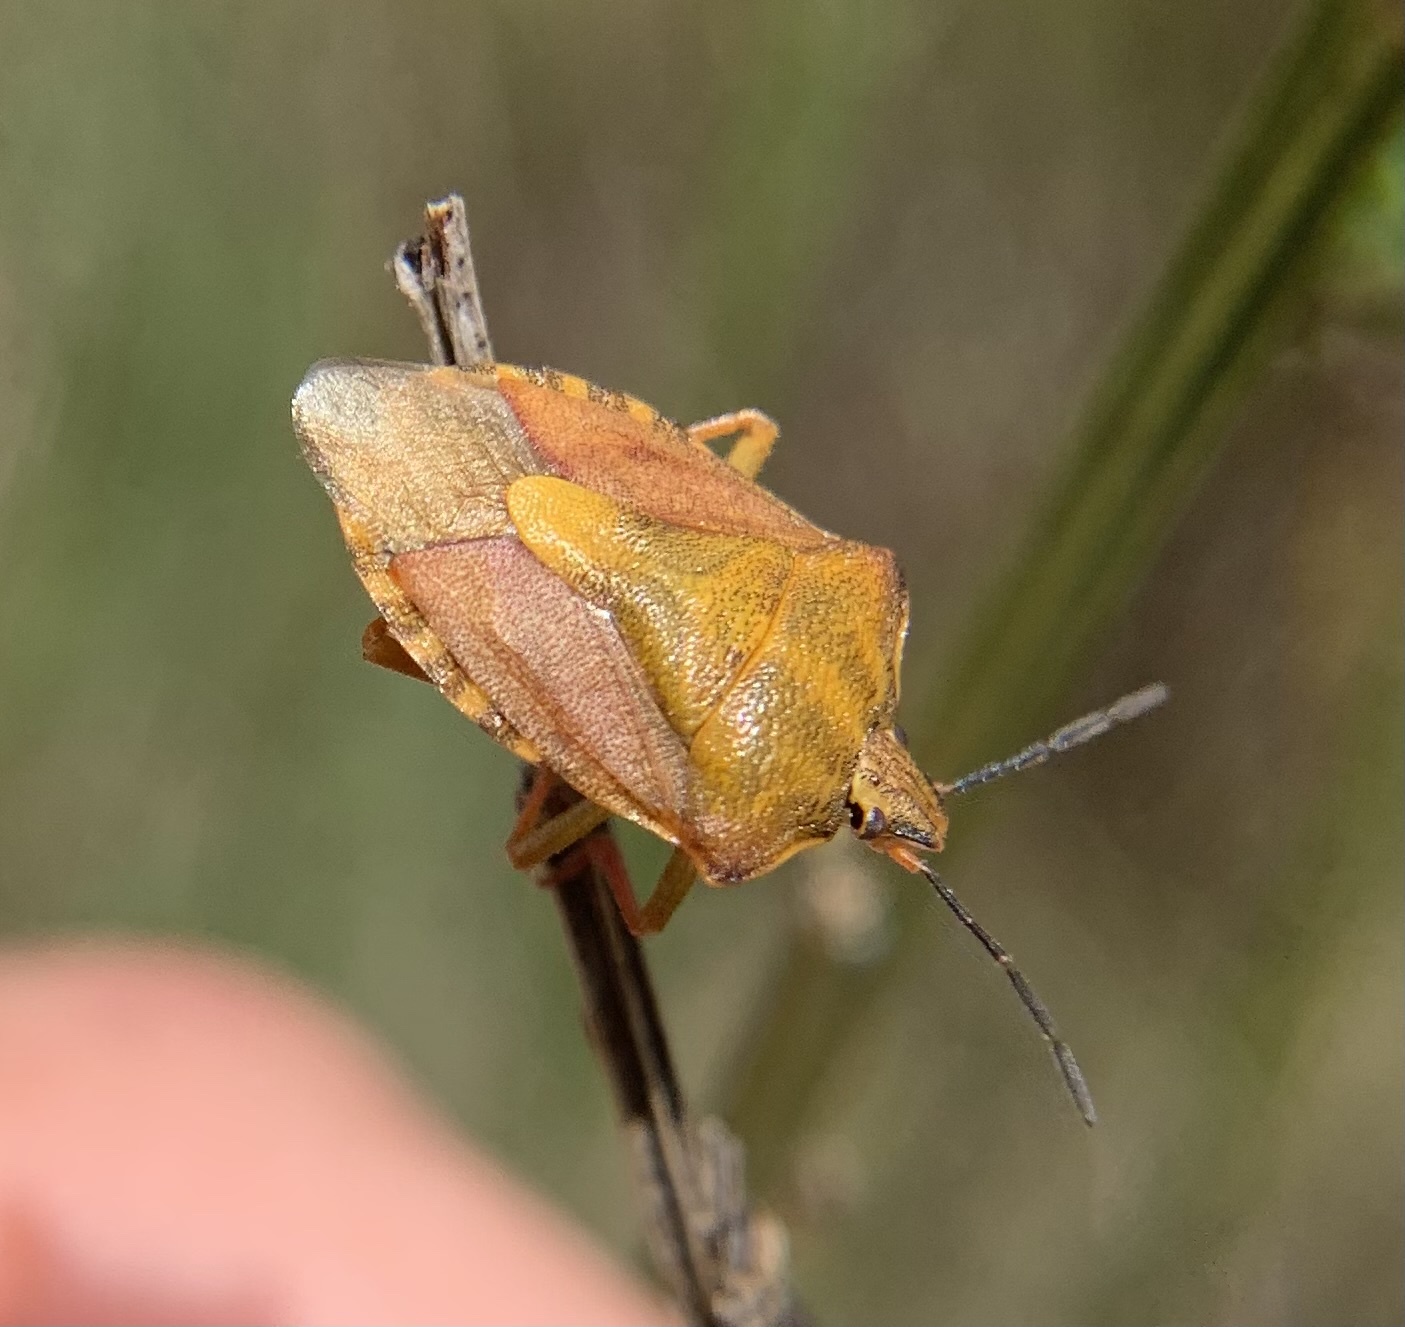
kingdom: Animalia
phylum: Arthropoda
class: Insecta
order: Hemiptera
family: Pentatomidae
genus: Carpocoris
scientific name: Carpocoris purpureipennis
